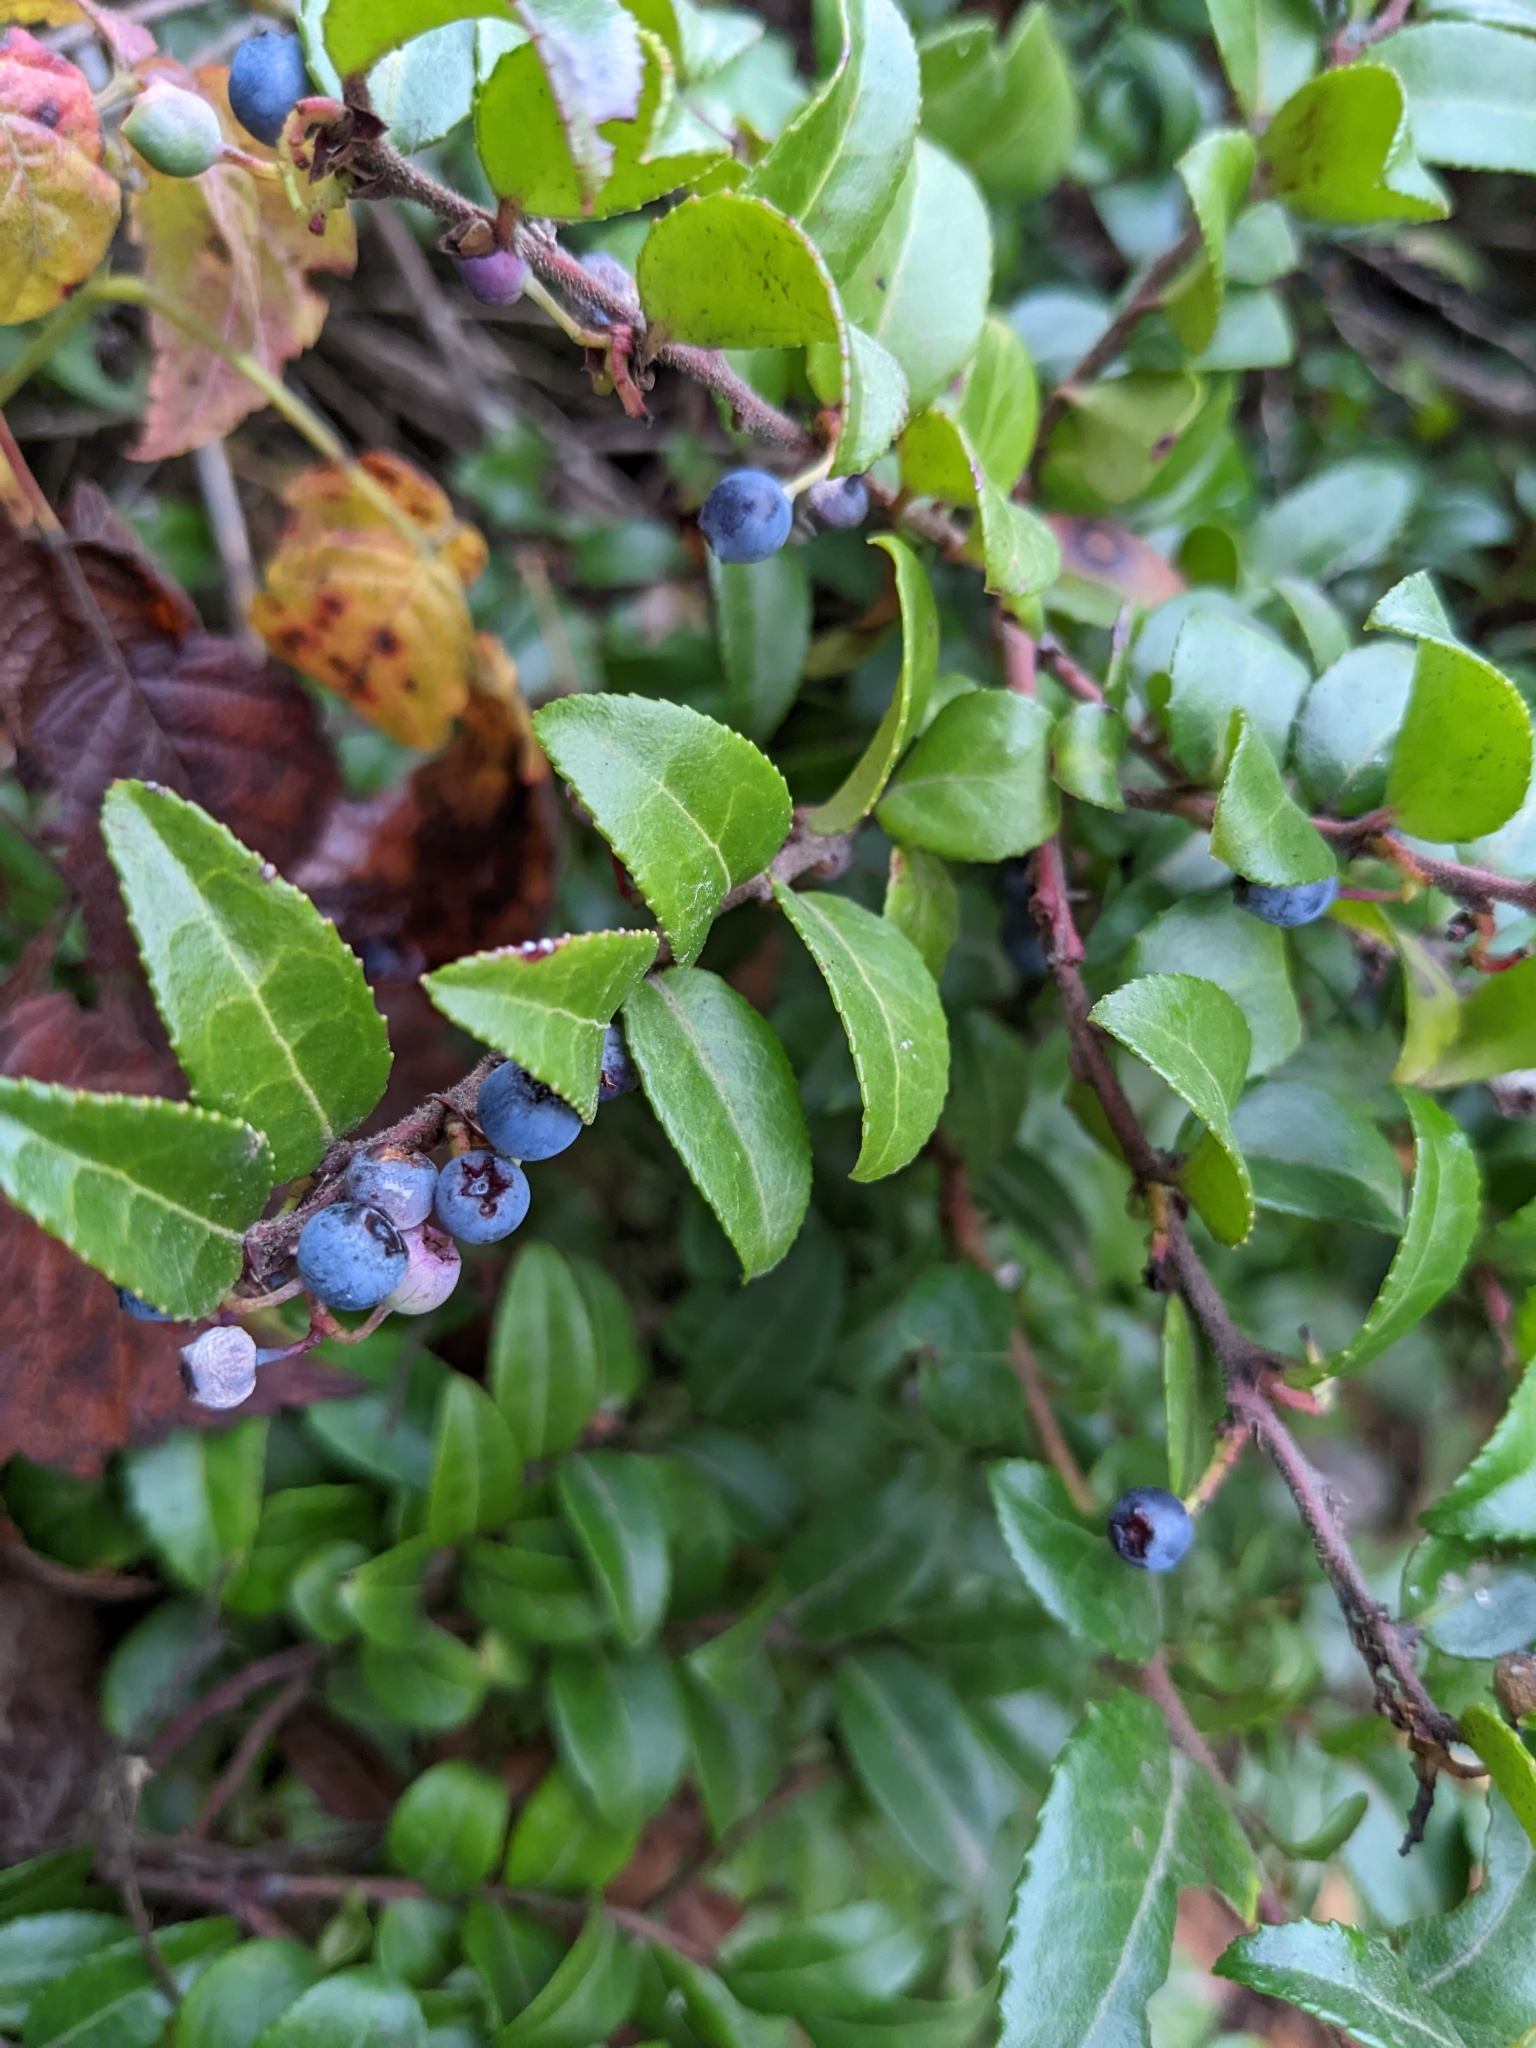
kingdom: Plantae
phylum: Tracheophyta
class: Magnoliopsida
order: Ericales
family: Ericaceae
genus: Vaccinium
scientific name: Vaccinium ovatum
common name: California-huckleberry
